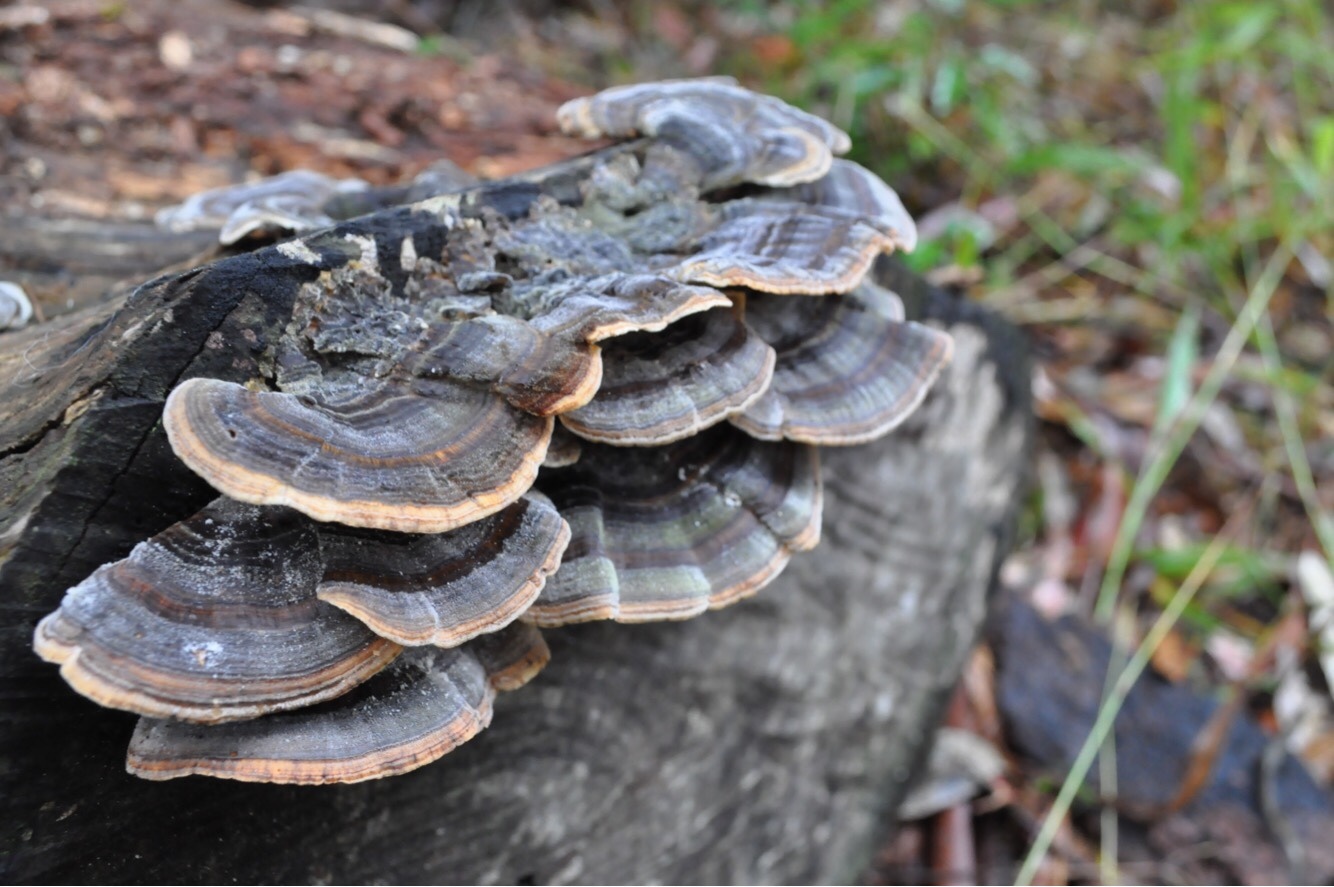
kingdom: Fungi
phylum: Basidiomycota
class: Agaricomycetes
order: Polyporales
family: Polyporaceae
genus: Trametes
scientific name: Trametes versicolor
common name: Turkeytail
